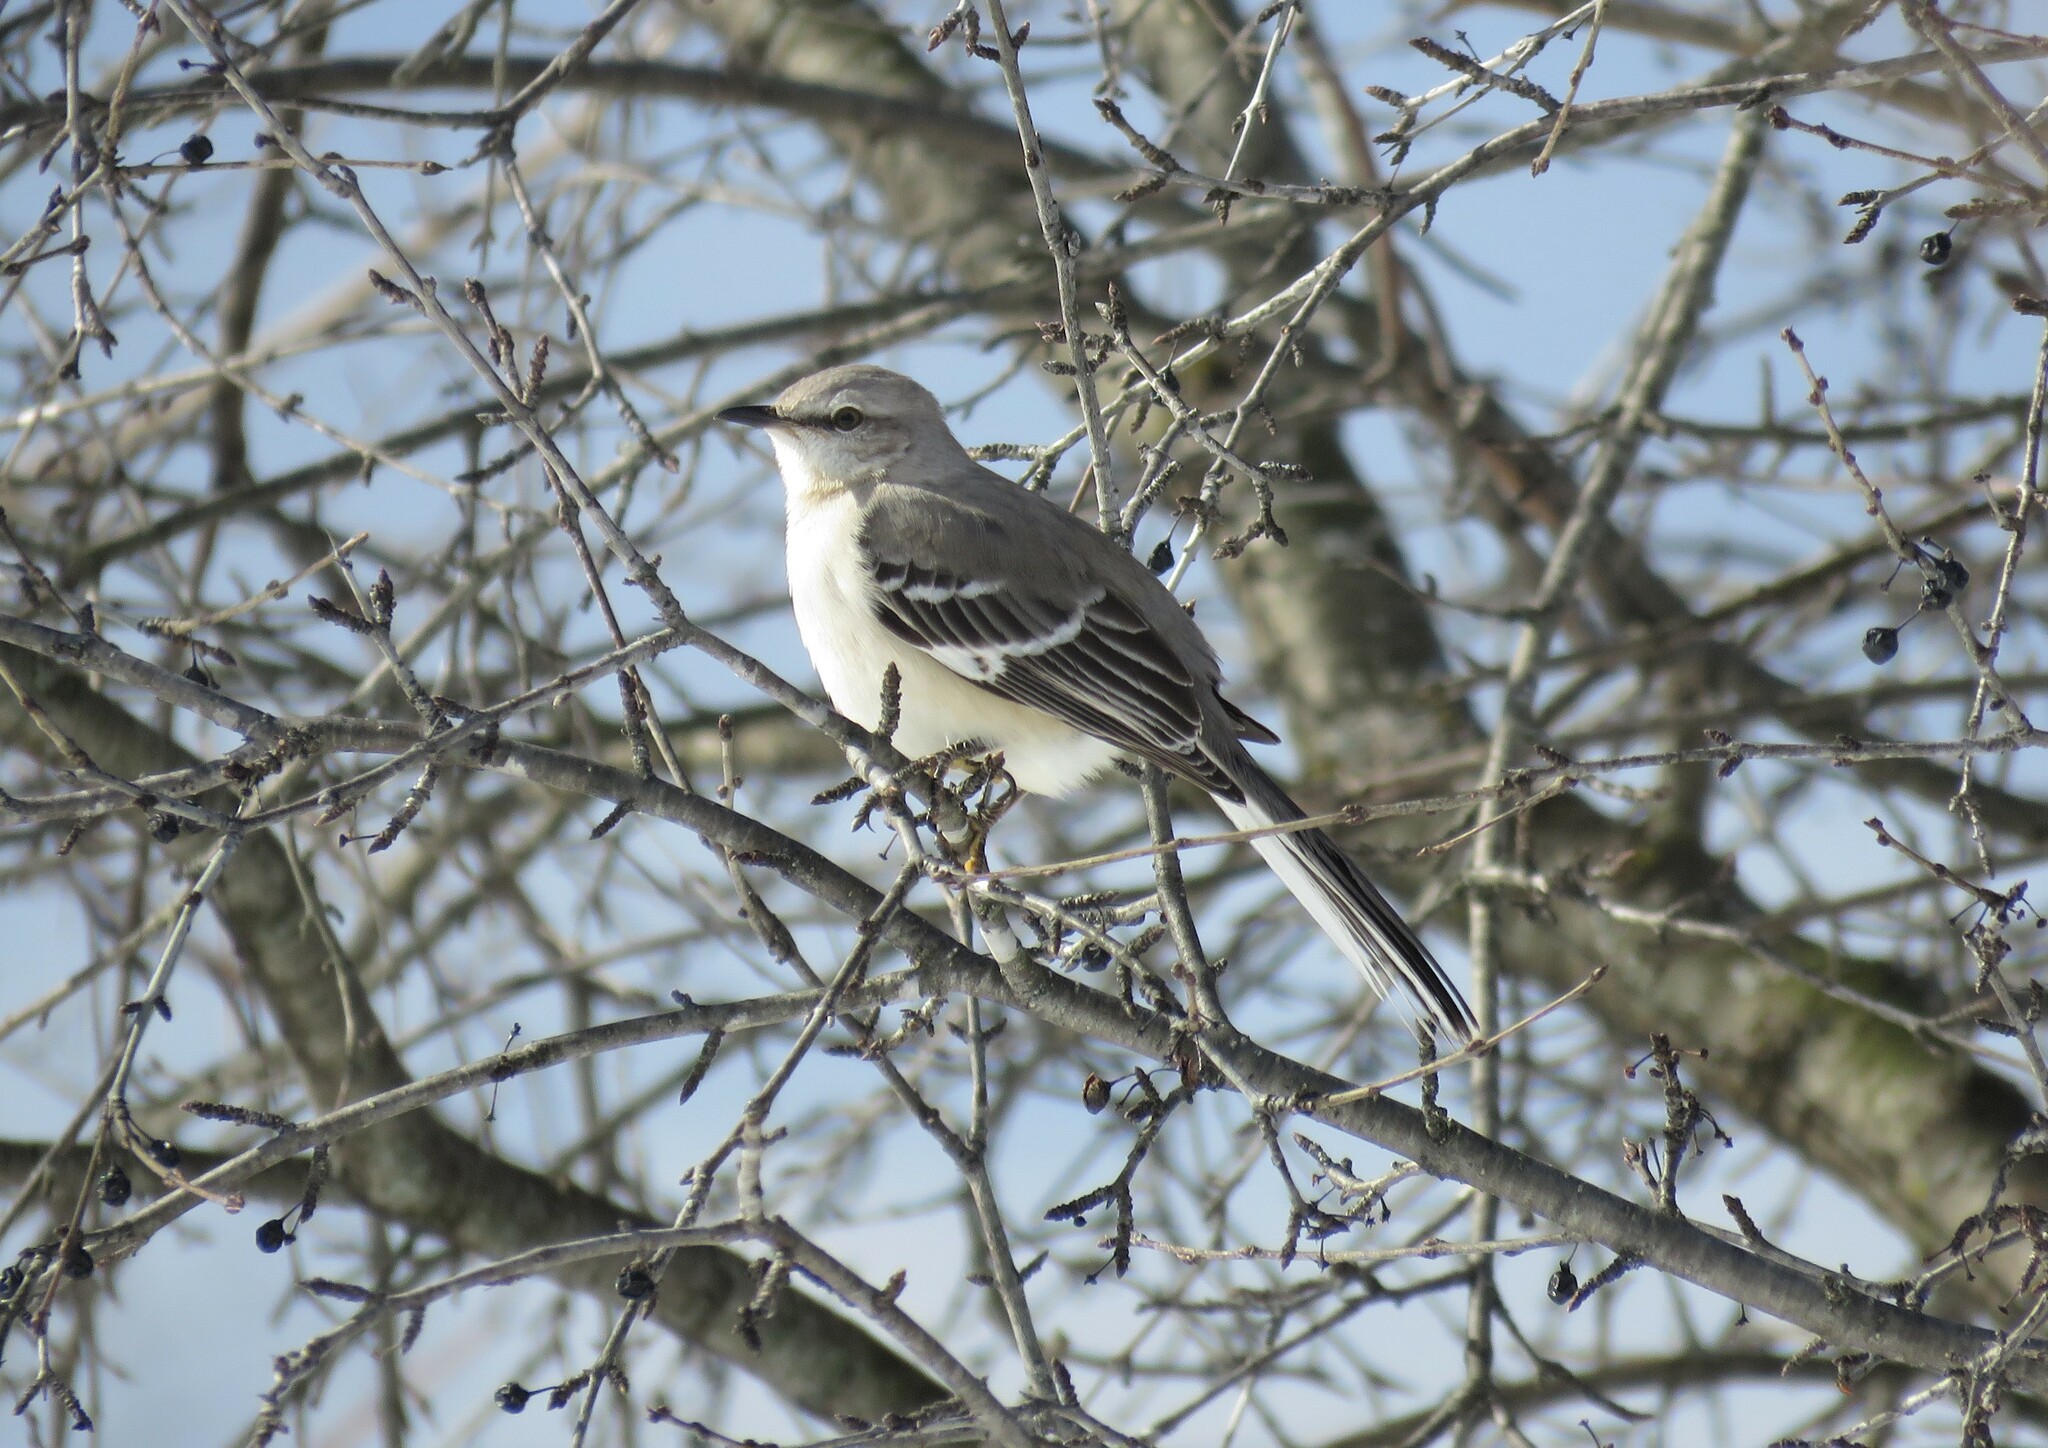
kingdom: Animalia
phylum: Chordata
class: Aves
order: Passeriformes
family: Mimidae
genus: Mimus
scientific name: Mimus polyglottos
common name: Northern mockingbird
